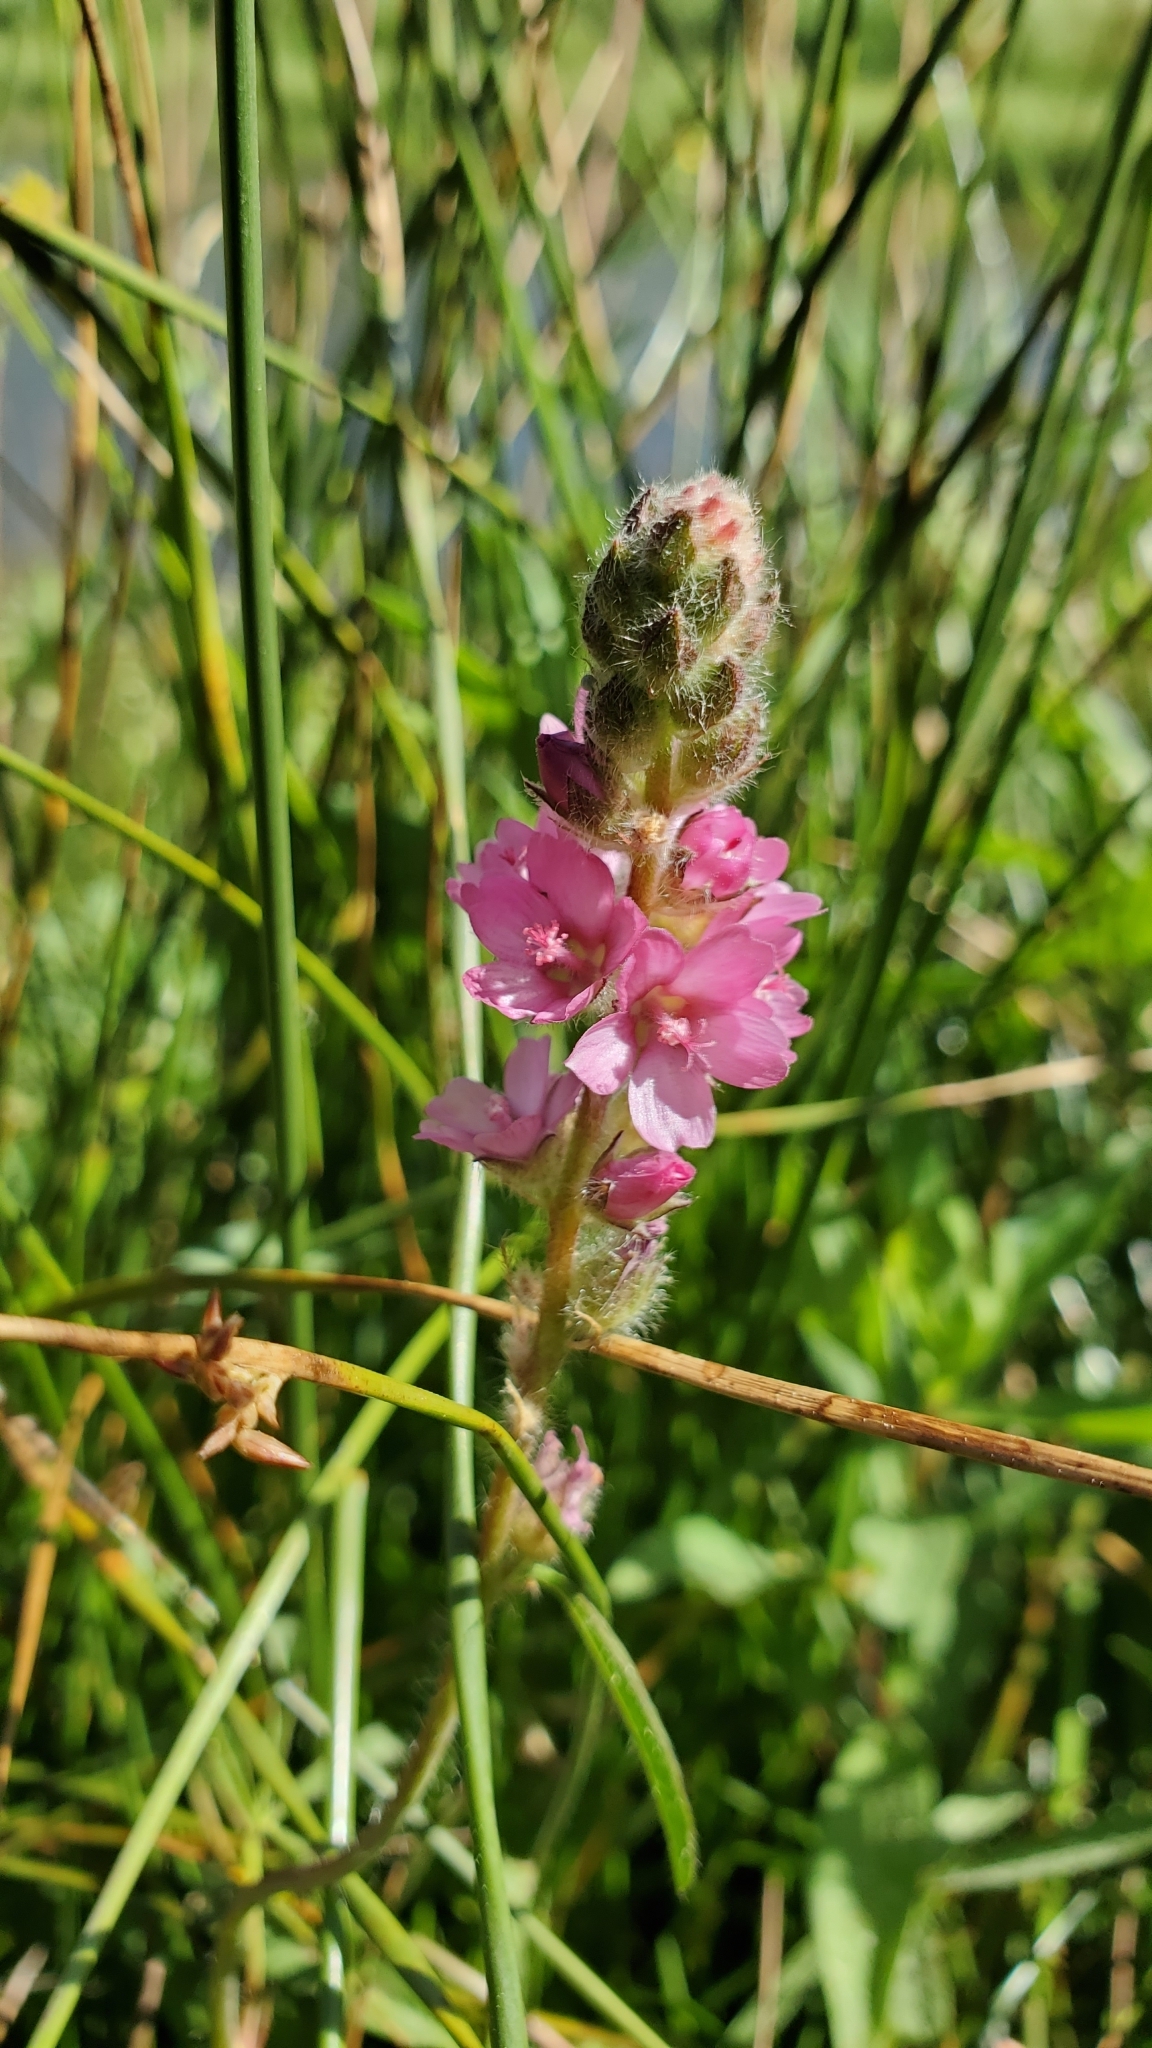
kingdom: Plantae
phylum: Tracheophyta
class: Magnoliopsida
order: Malvales
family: Malvaceae
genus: Sidalcea
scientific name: Sidalcea oregana
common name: Oregon checker-mallow
